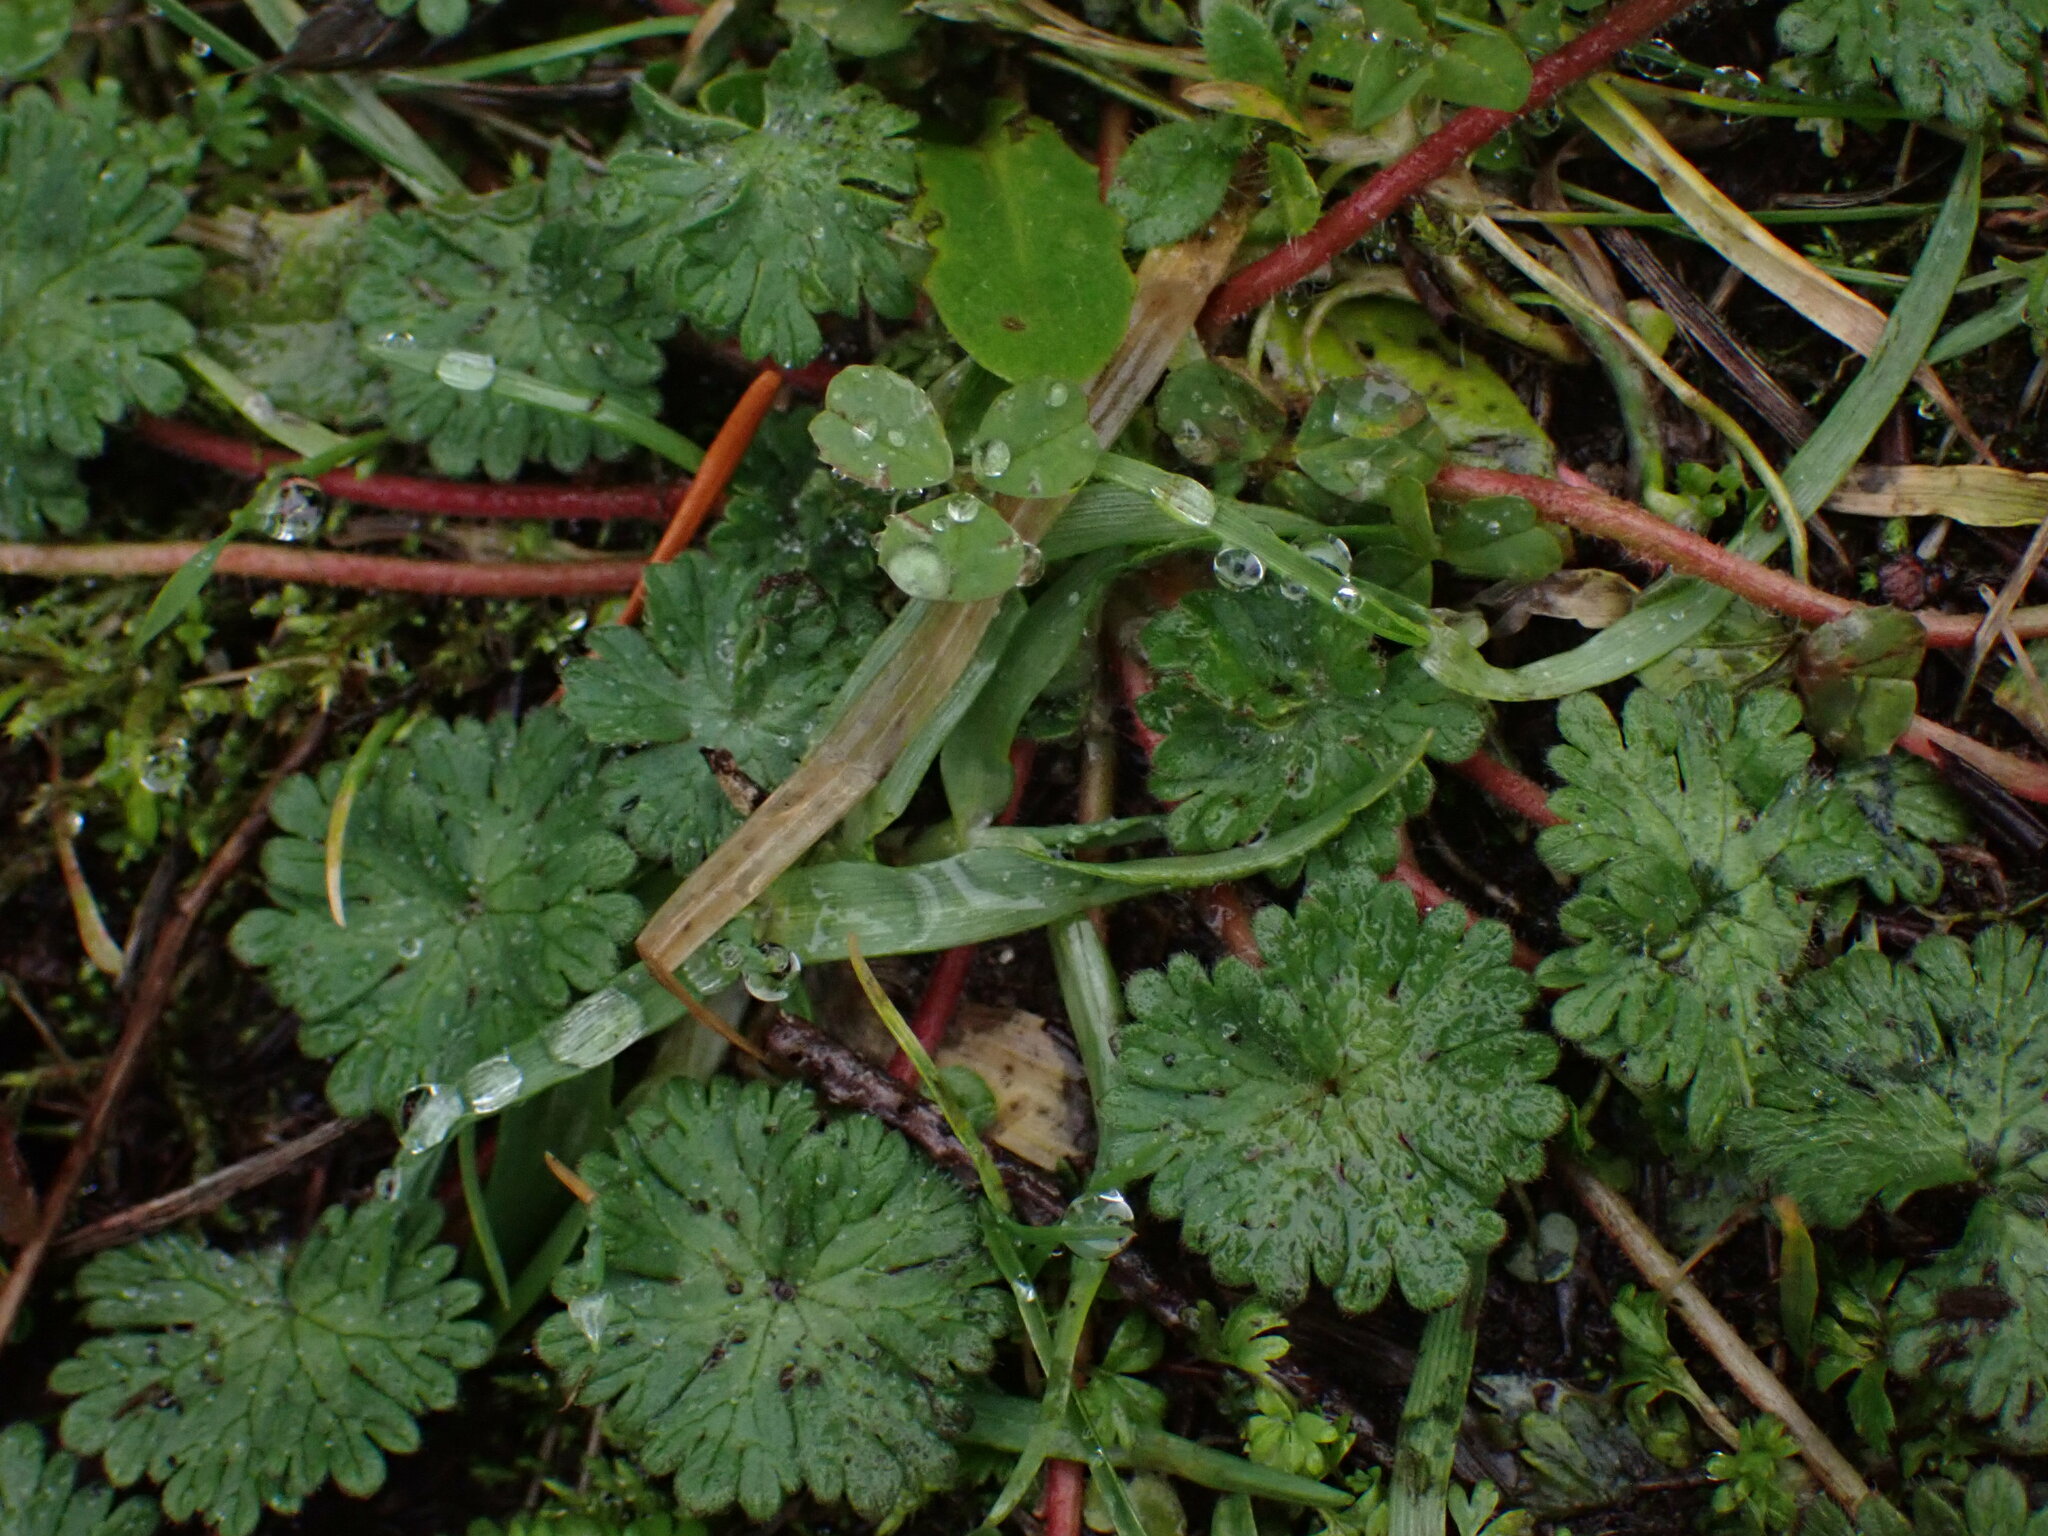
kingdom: Plantae
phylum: Tracheophyta
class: Magnoliopsida
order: Geraniales
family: Geraniaceae
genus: Geranium
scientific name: Geranium molle
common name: Dove's-foot crane's-bill
